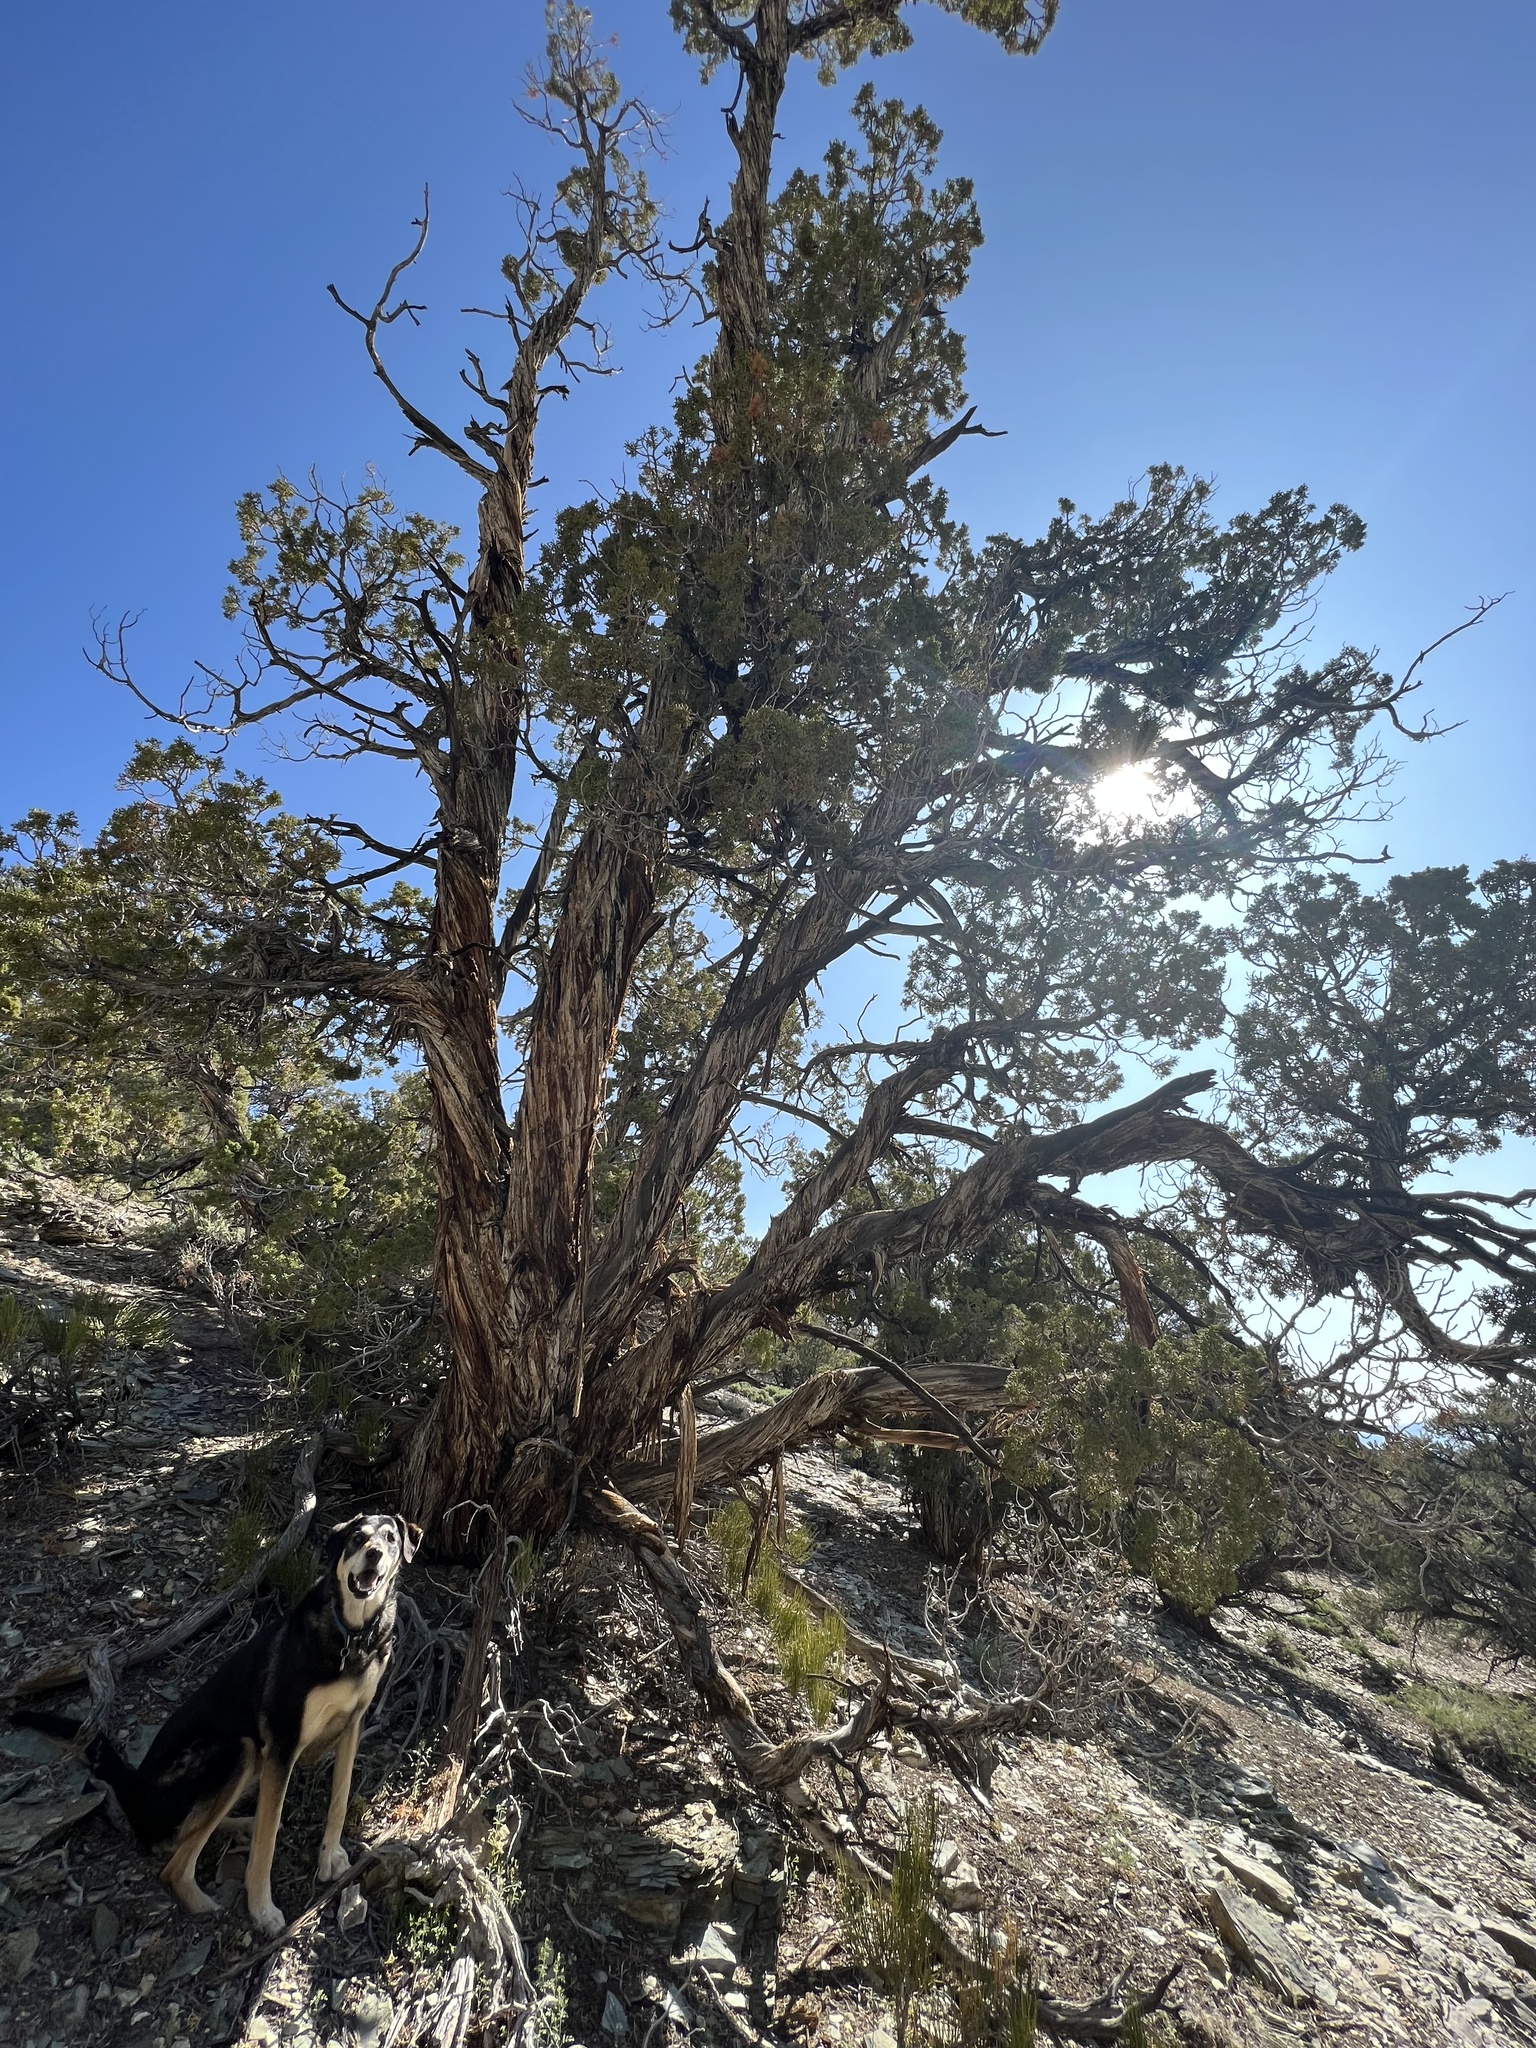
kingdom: Plantae
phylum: Tracheophyta
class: Pinopsida
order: Pinales
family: Cupressaceae
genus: Juniperus
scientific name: Juniperus osteosperma
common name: Utah juniper
